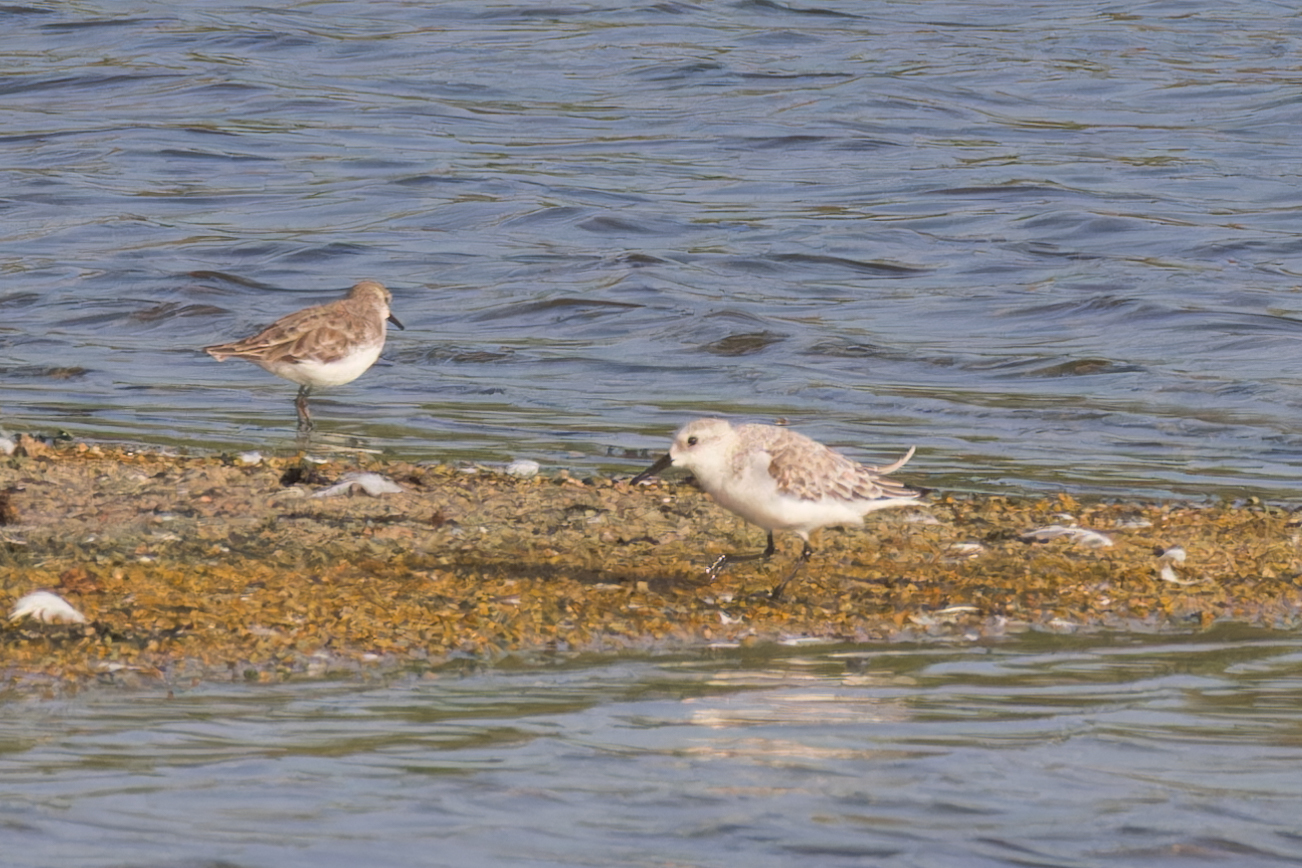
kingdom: Animalia
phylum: Chordata
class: Aves
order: Charadriiformes
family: Scolopacidae
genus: Calidris
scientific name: Calidris minuta
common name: Little stint
